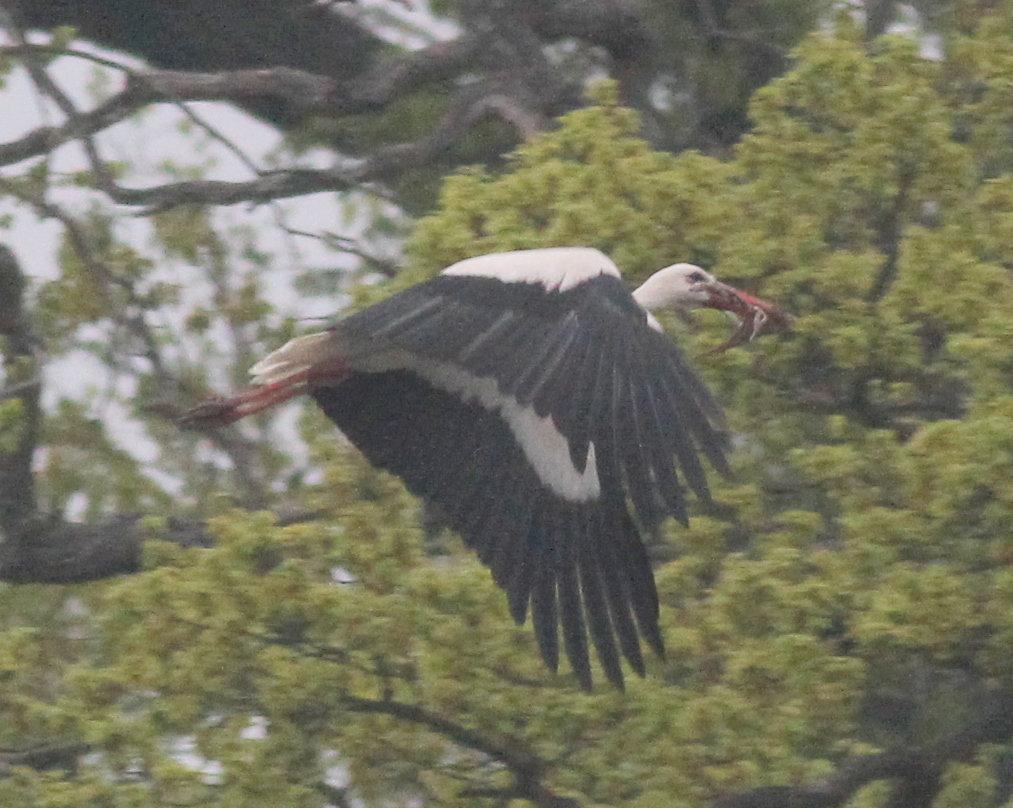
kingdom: Animalia
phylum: Chordata
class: Aves
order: Ciconiiformes
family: Ciconiidae
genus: Ciconia
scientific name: Ciconia ciconia
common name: White stork
